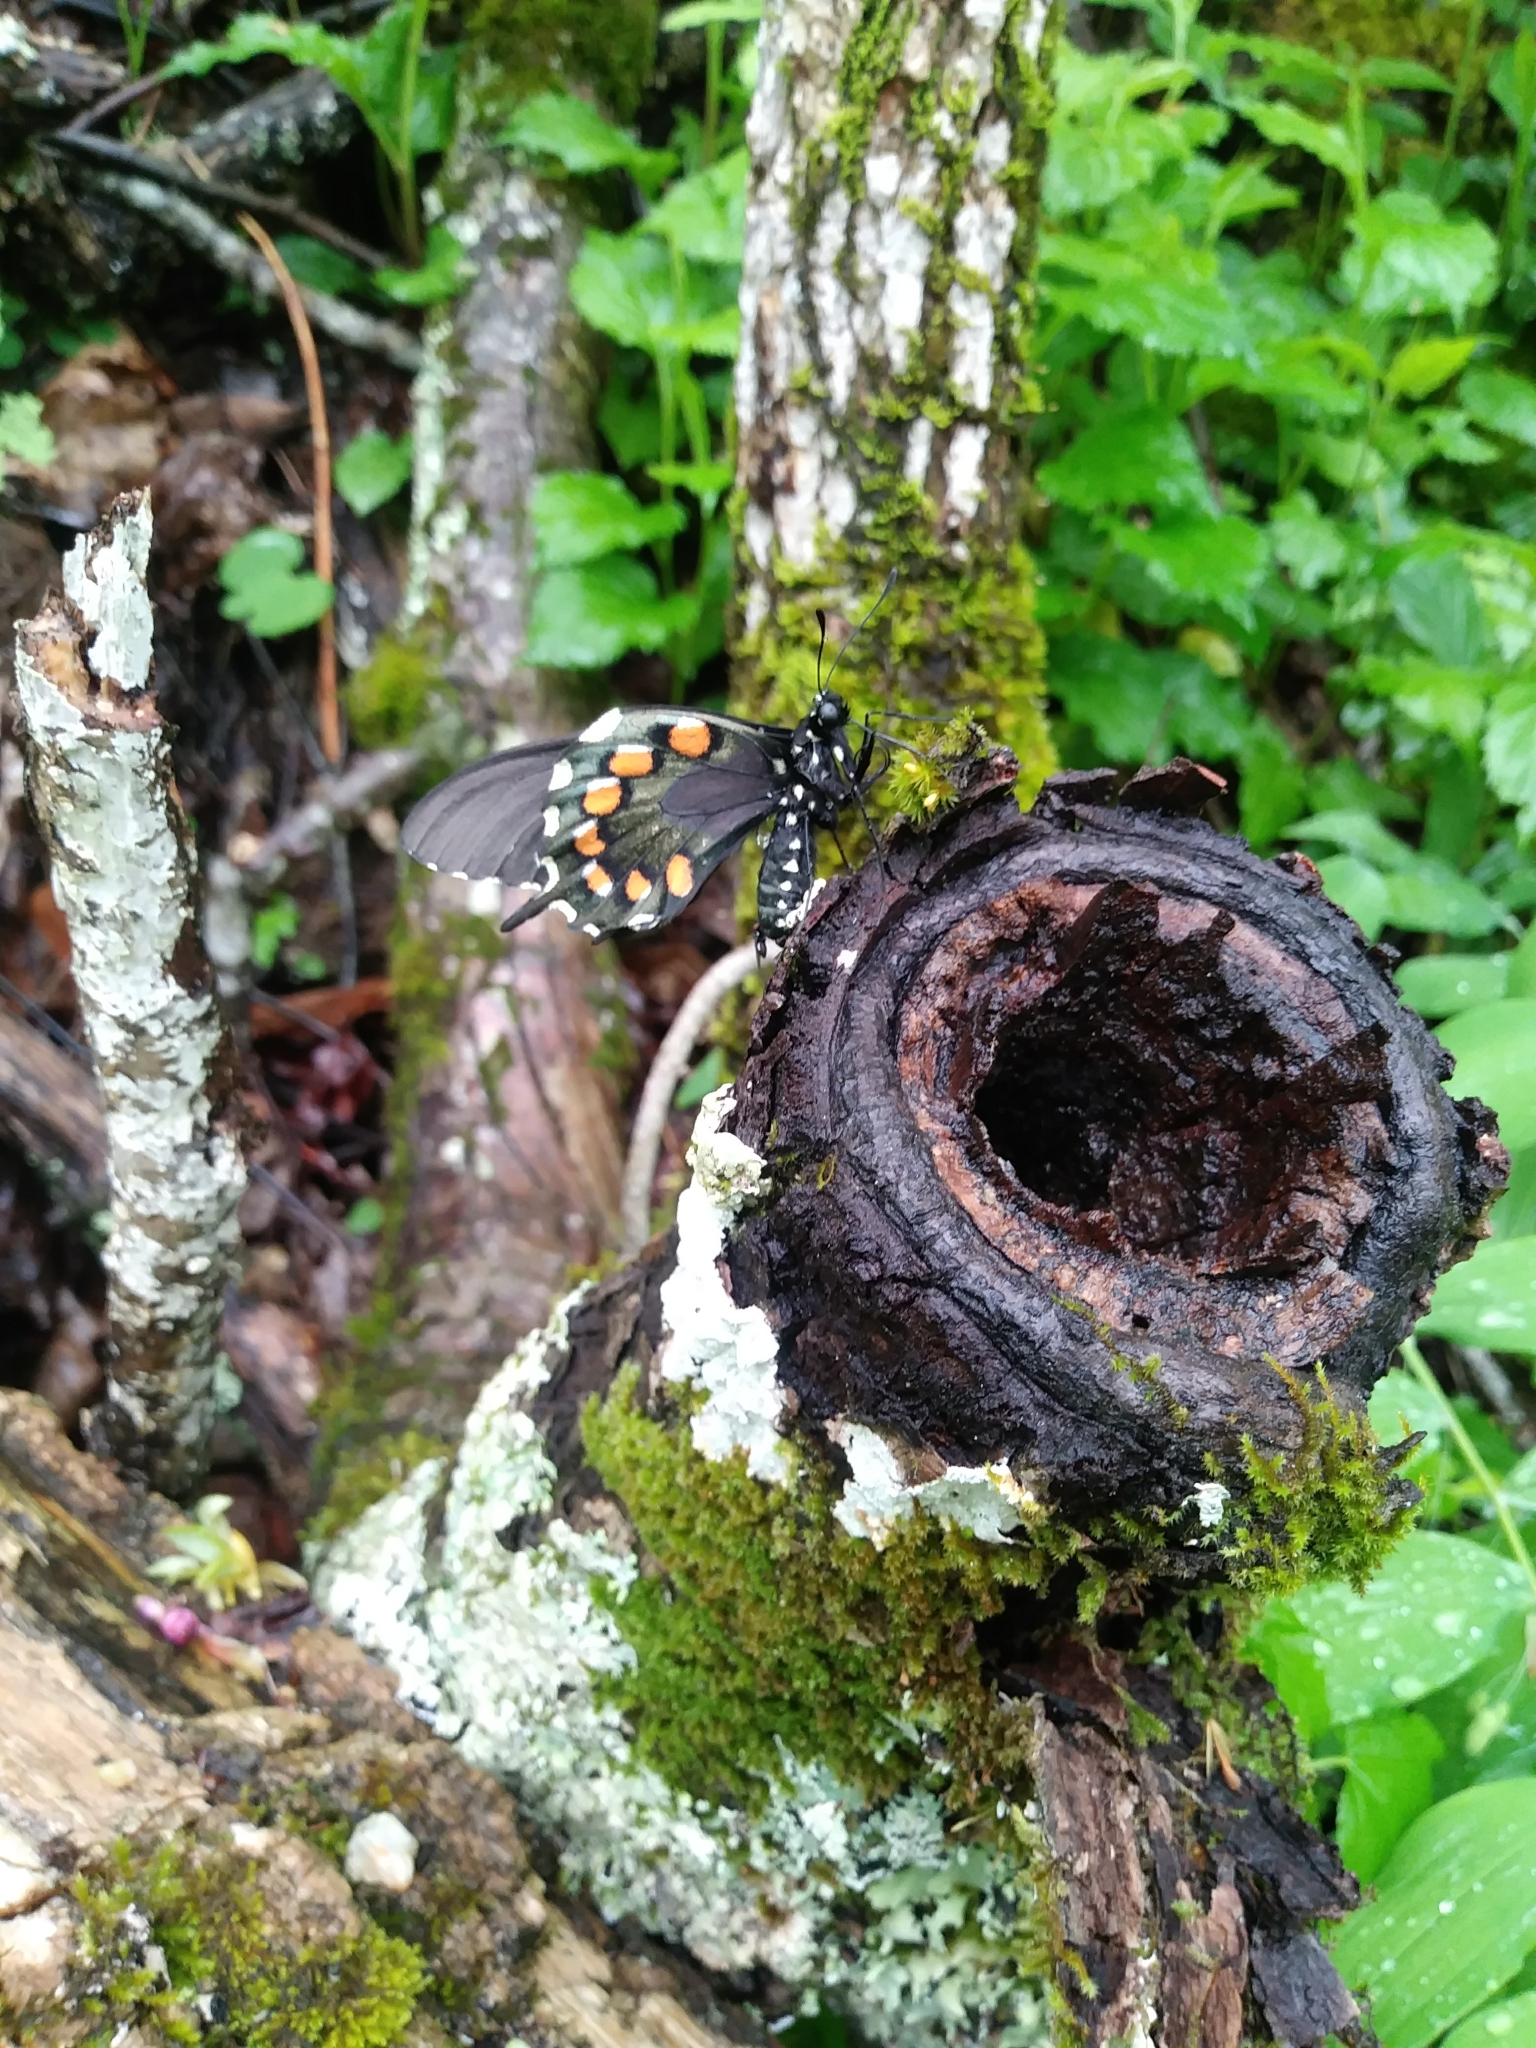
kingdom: Animalia
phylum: Arthropoda
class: Insecta
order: Lepidoptera
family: Papilionidae
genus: Battus
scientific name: Battus philenor
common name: Pipevine swallowtail
